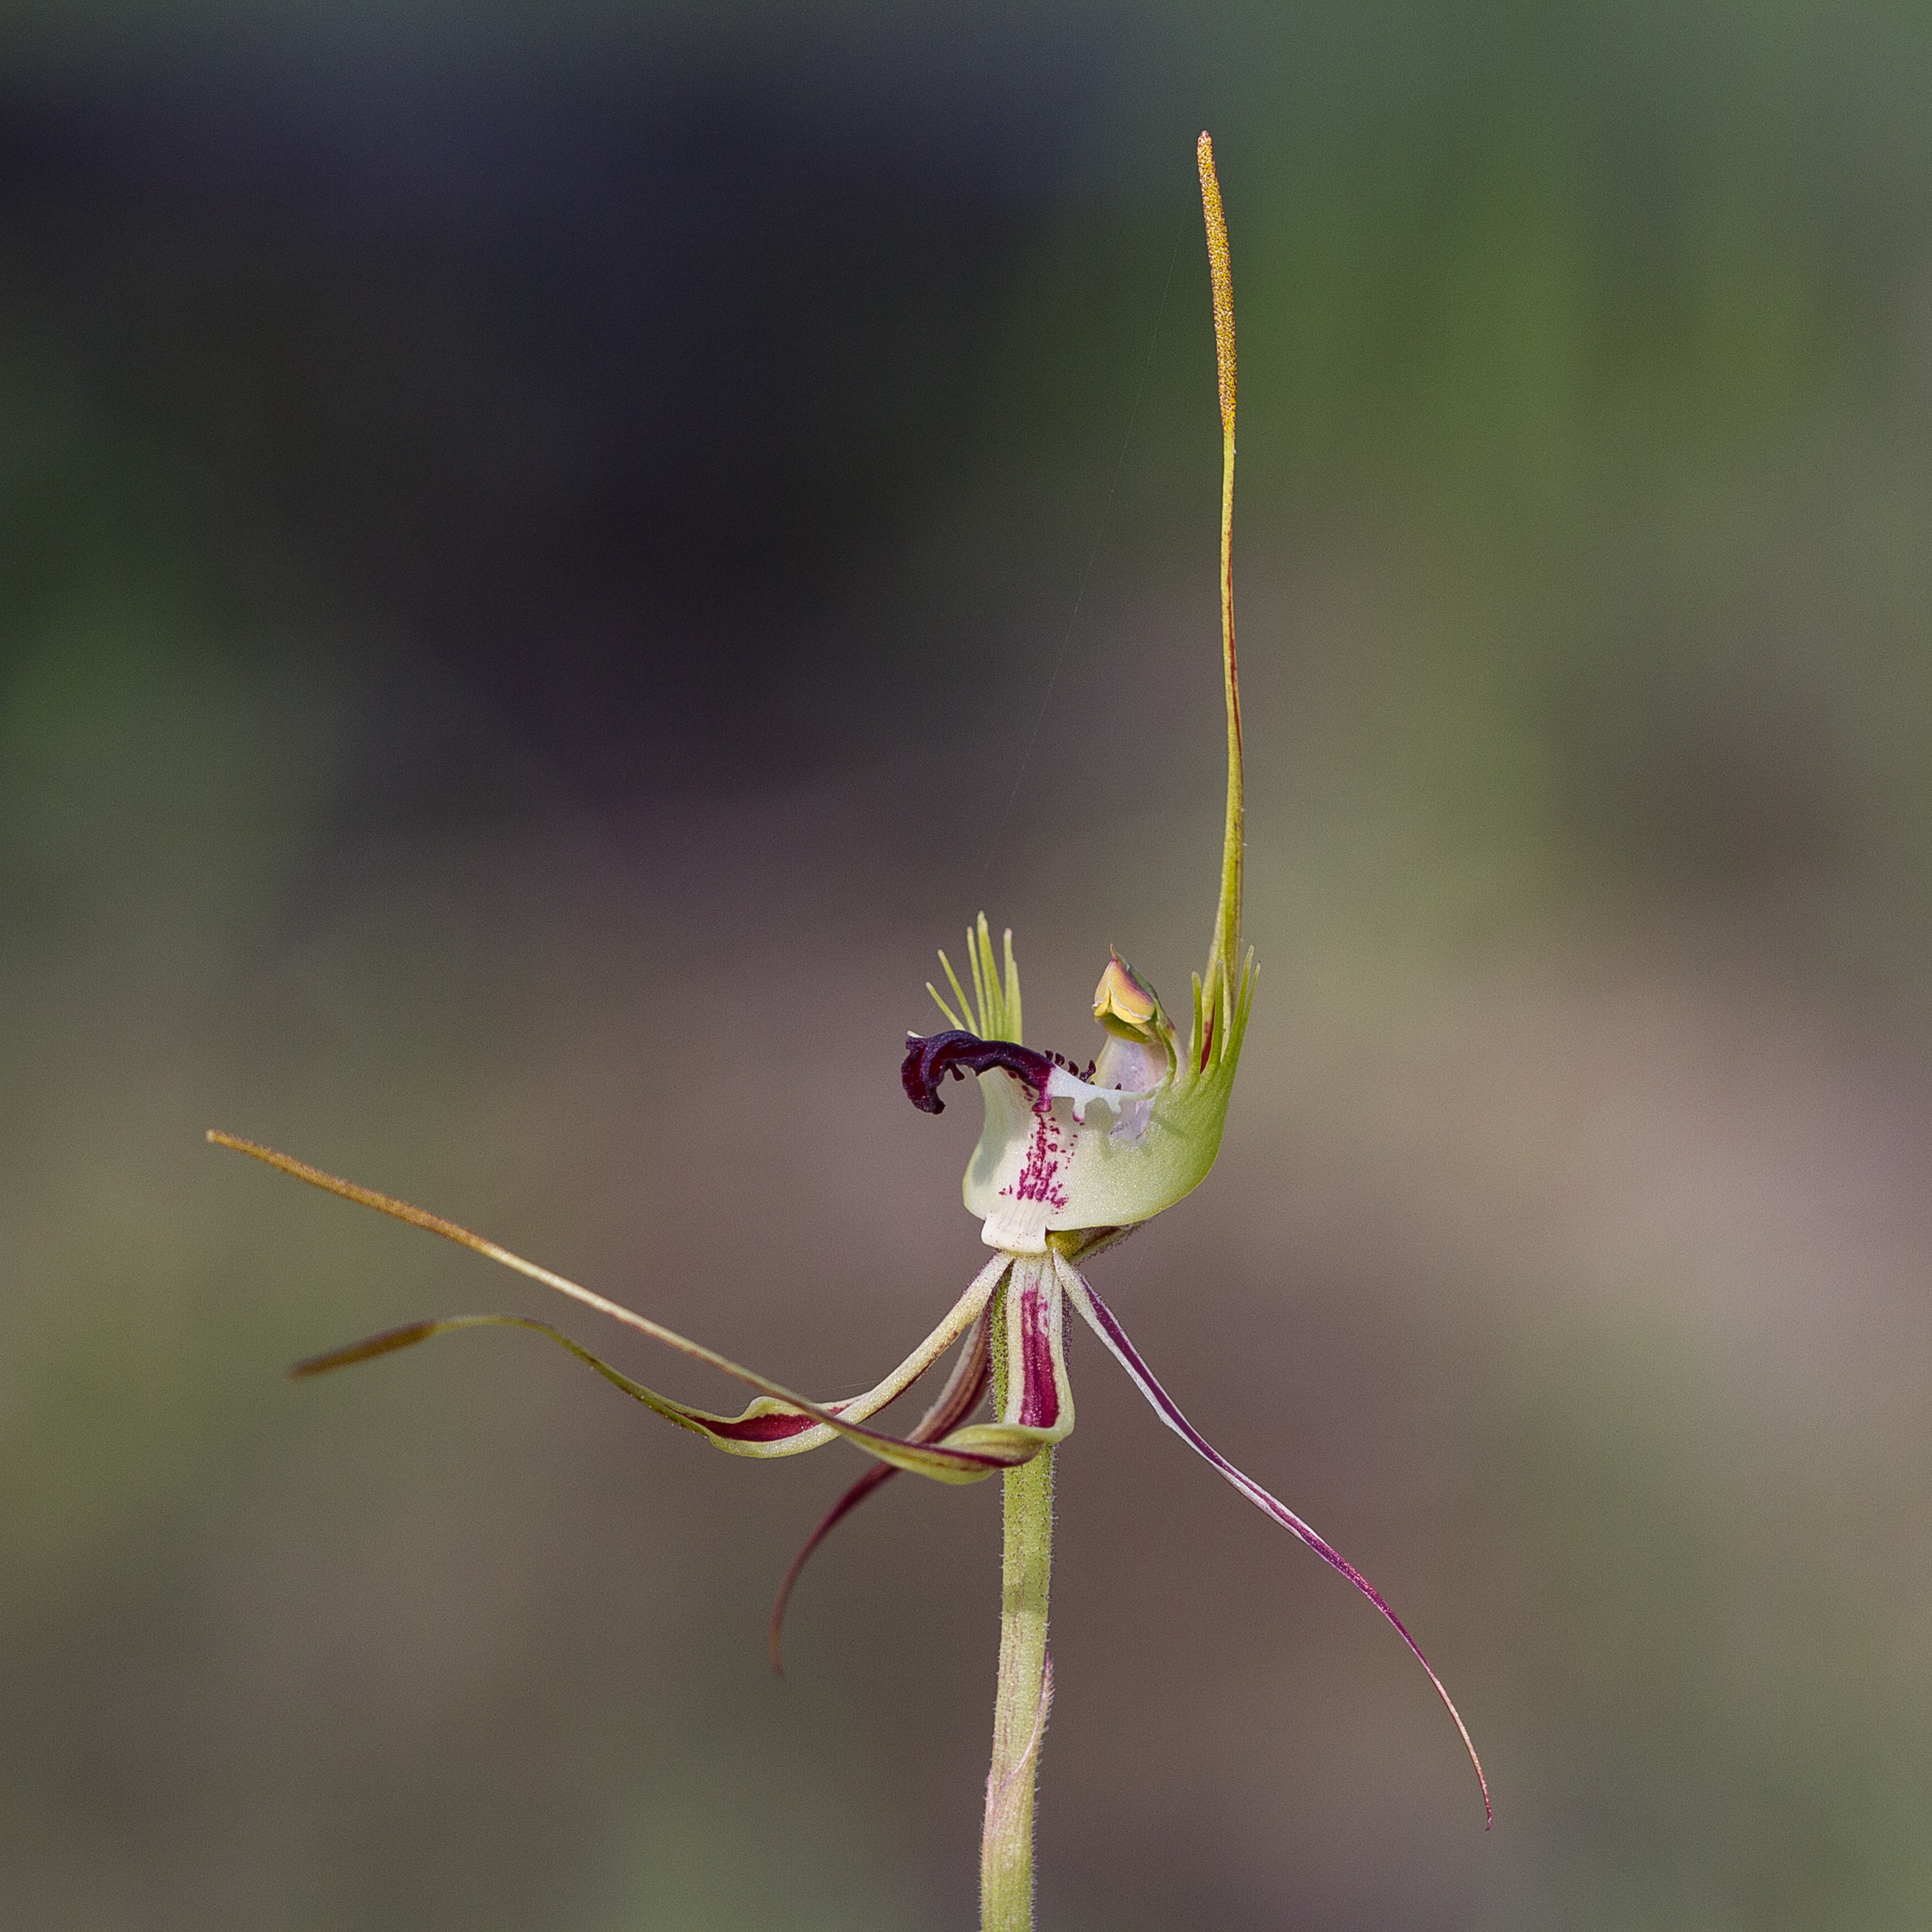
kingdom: Plantae
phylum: Tracheophyta
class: Liliopsida
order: Asparagales
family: Orchidaceae
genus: Caladenia
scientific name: Caladenia tentaculata
